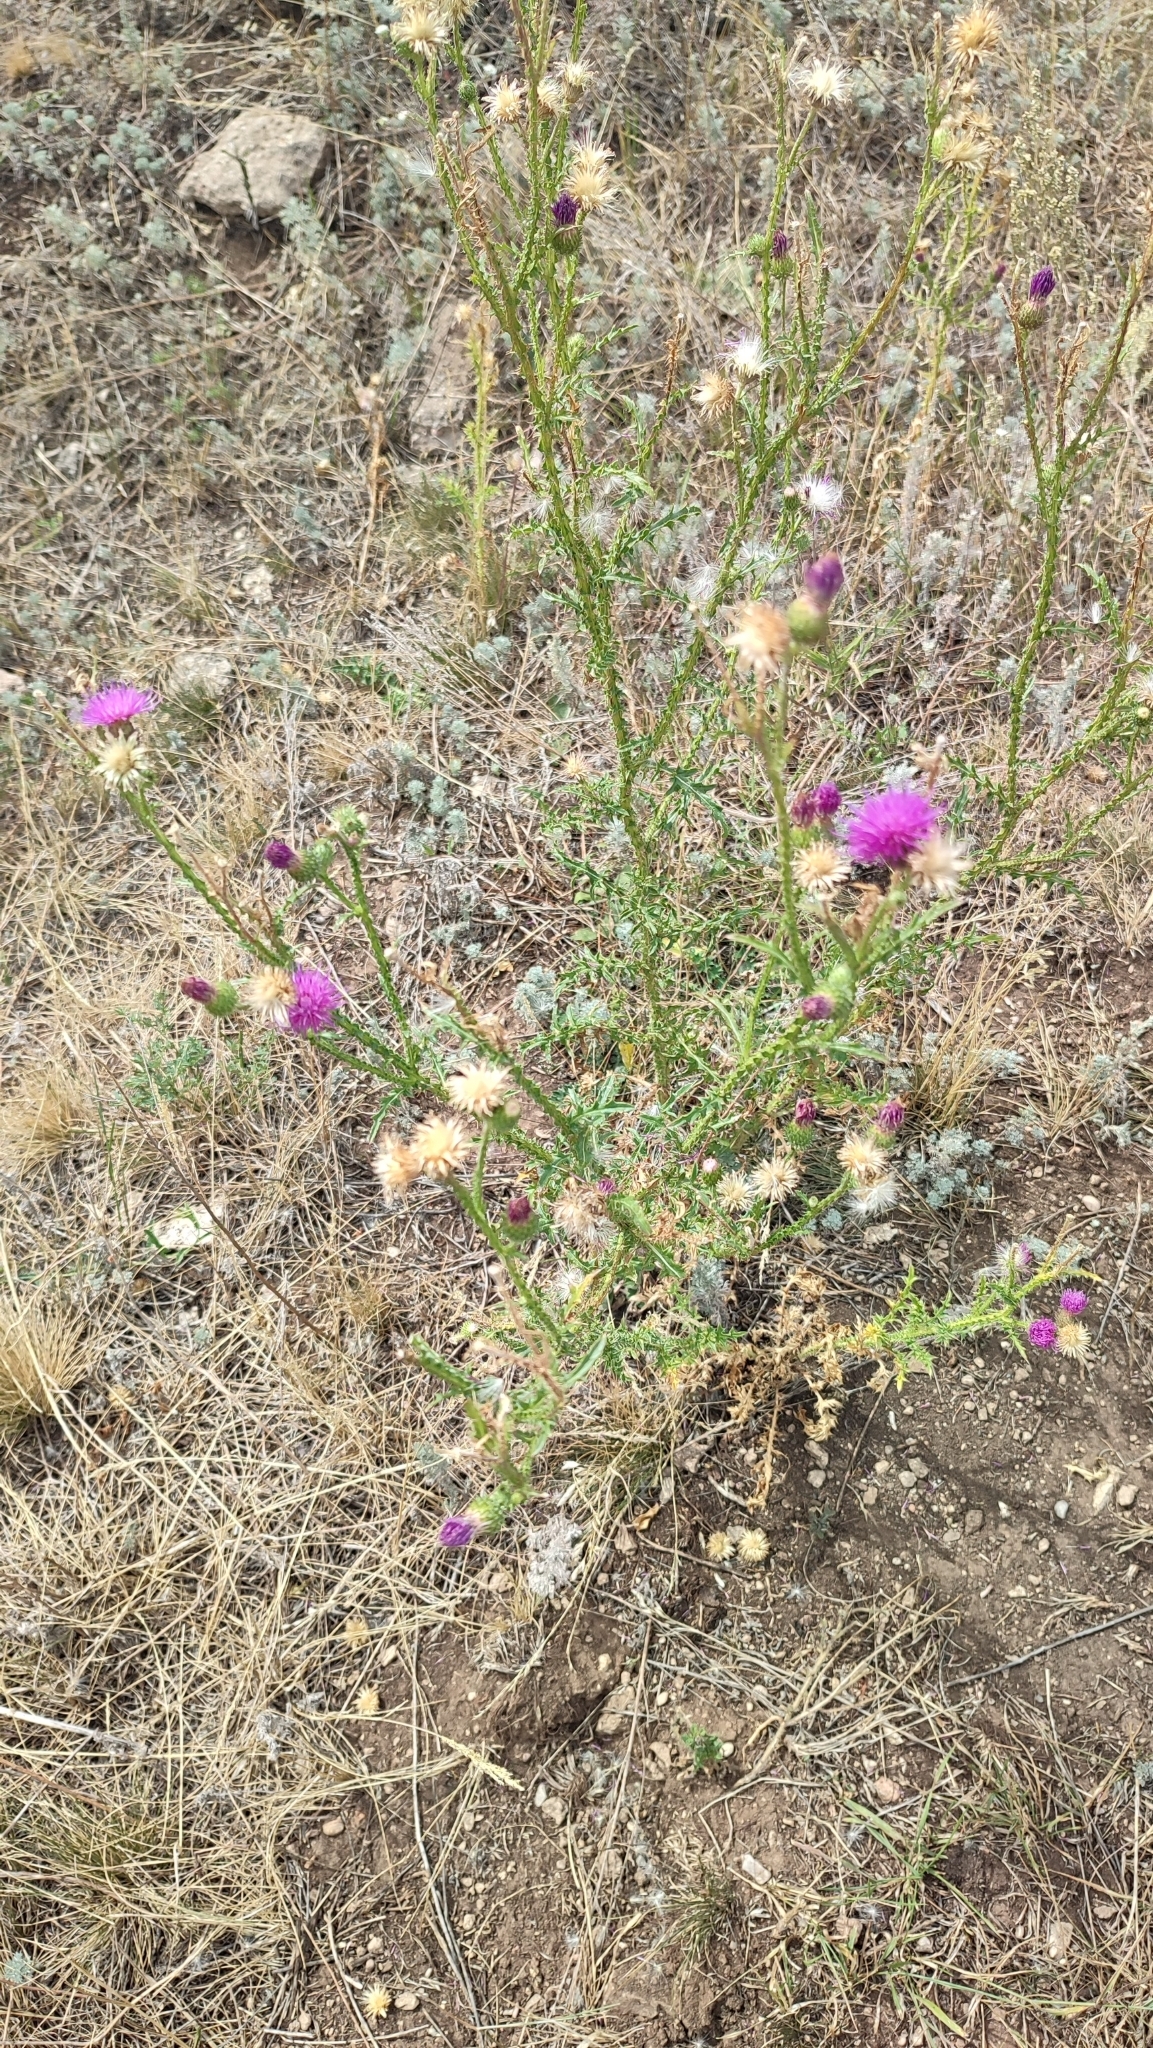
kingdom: Plantae
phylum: Tracheophyta
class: Magnoliopsida
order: Asterales
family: Asteraceae
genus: Carduus
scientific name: Carduus acanthoides
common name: Plumeless thistle
